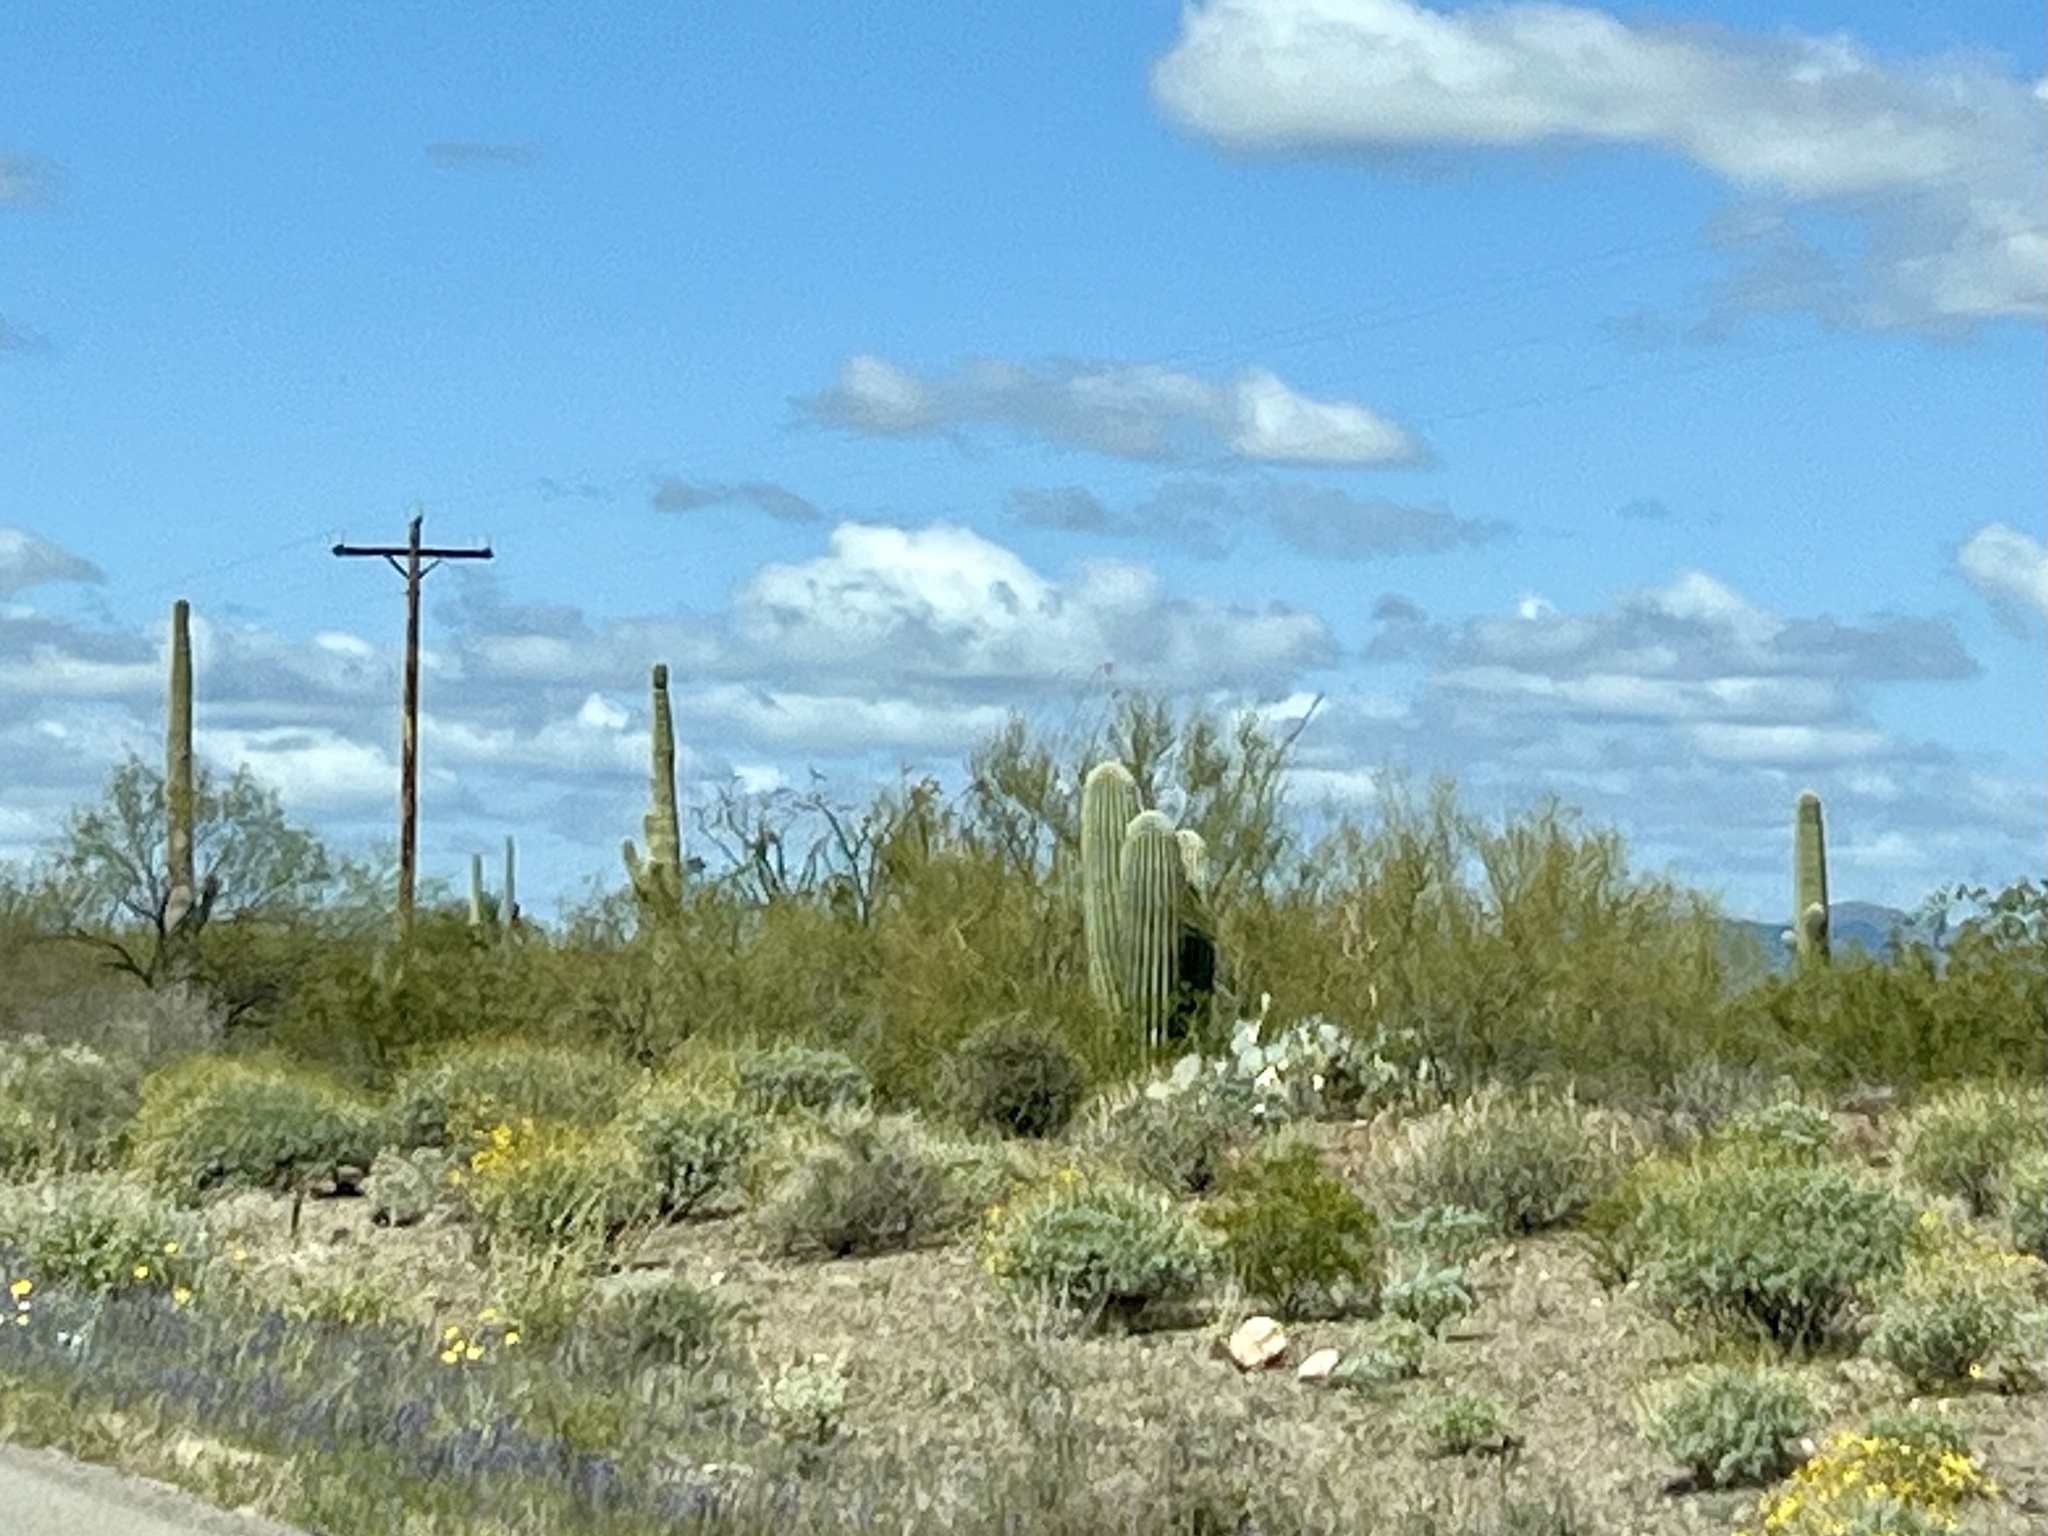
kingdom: Plantae
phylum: Tracheophyta
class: Magnoliopsida
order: Caryophyllales
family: Cactaceae
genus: Carnegiea
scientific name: Carnegiea gigantea
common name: Saguaro
